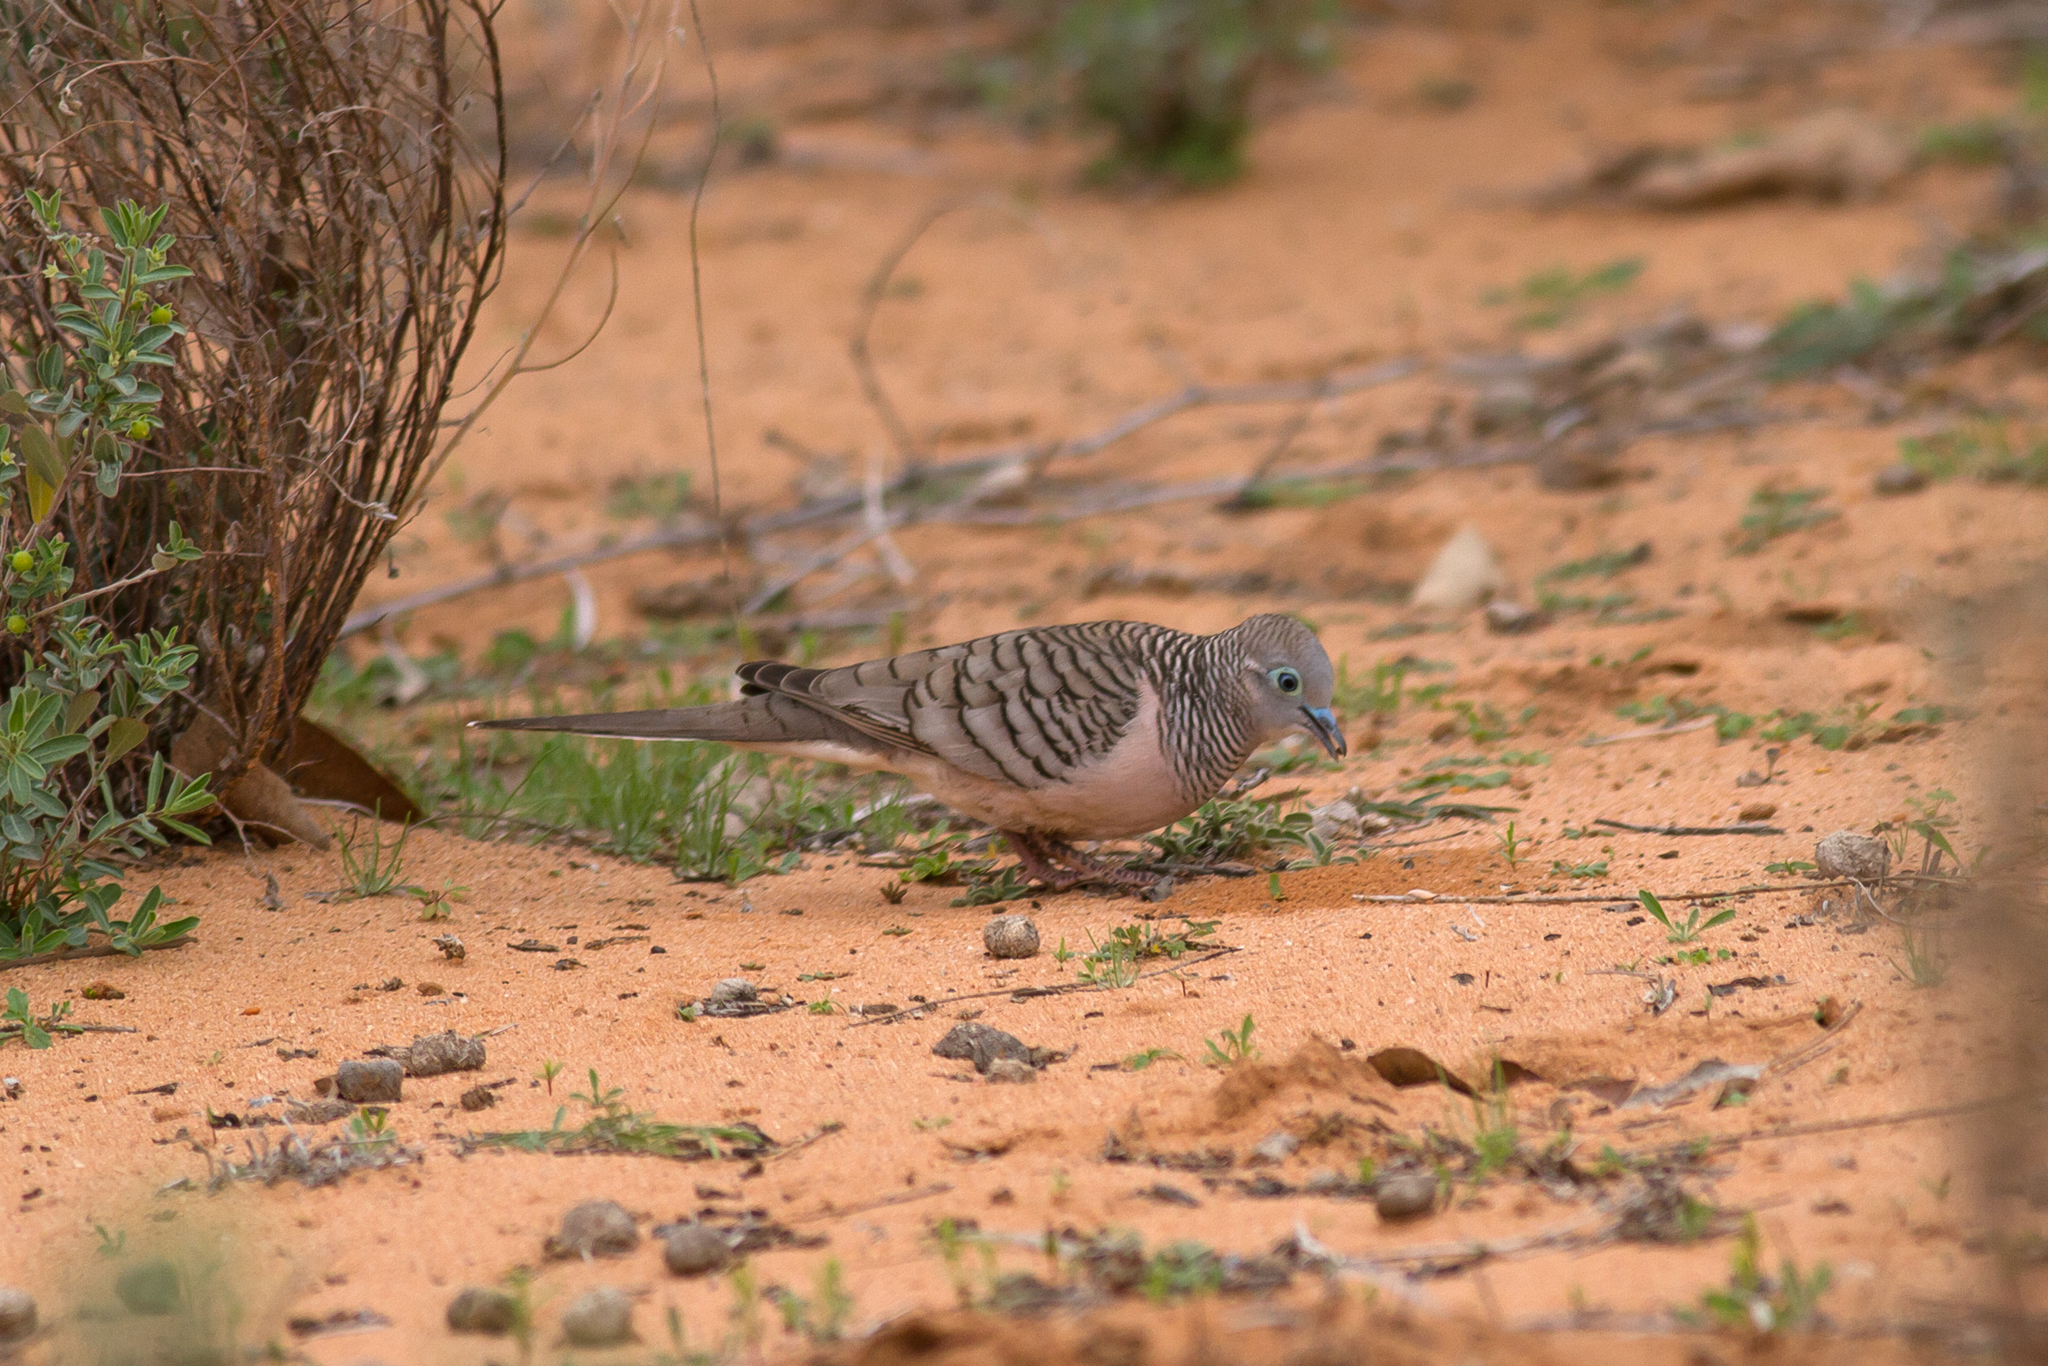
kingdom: Animalia
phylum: Chordata
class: Aves
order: Columbiformes
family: Columbidae
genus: Geopelia
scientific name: Geopelia placida
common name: Peaceful dove
